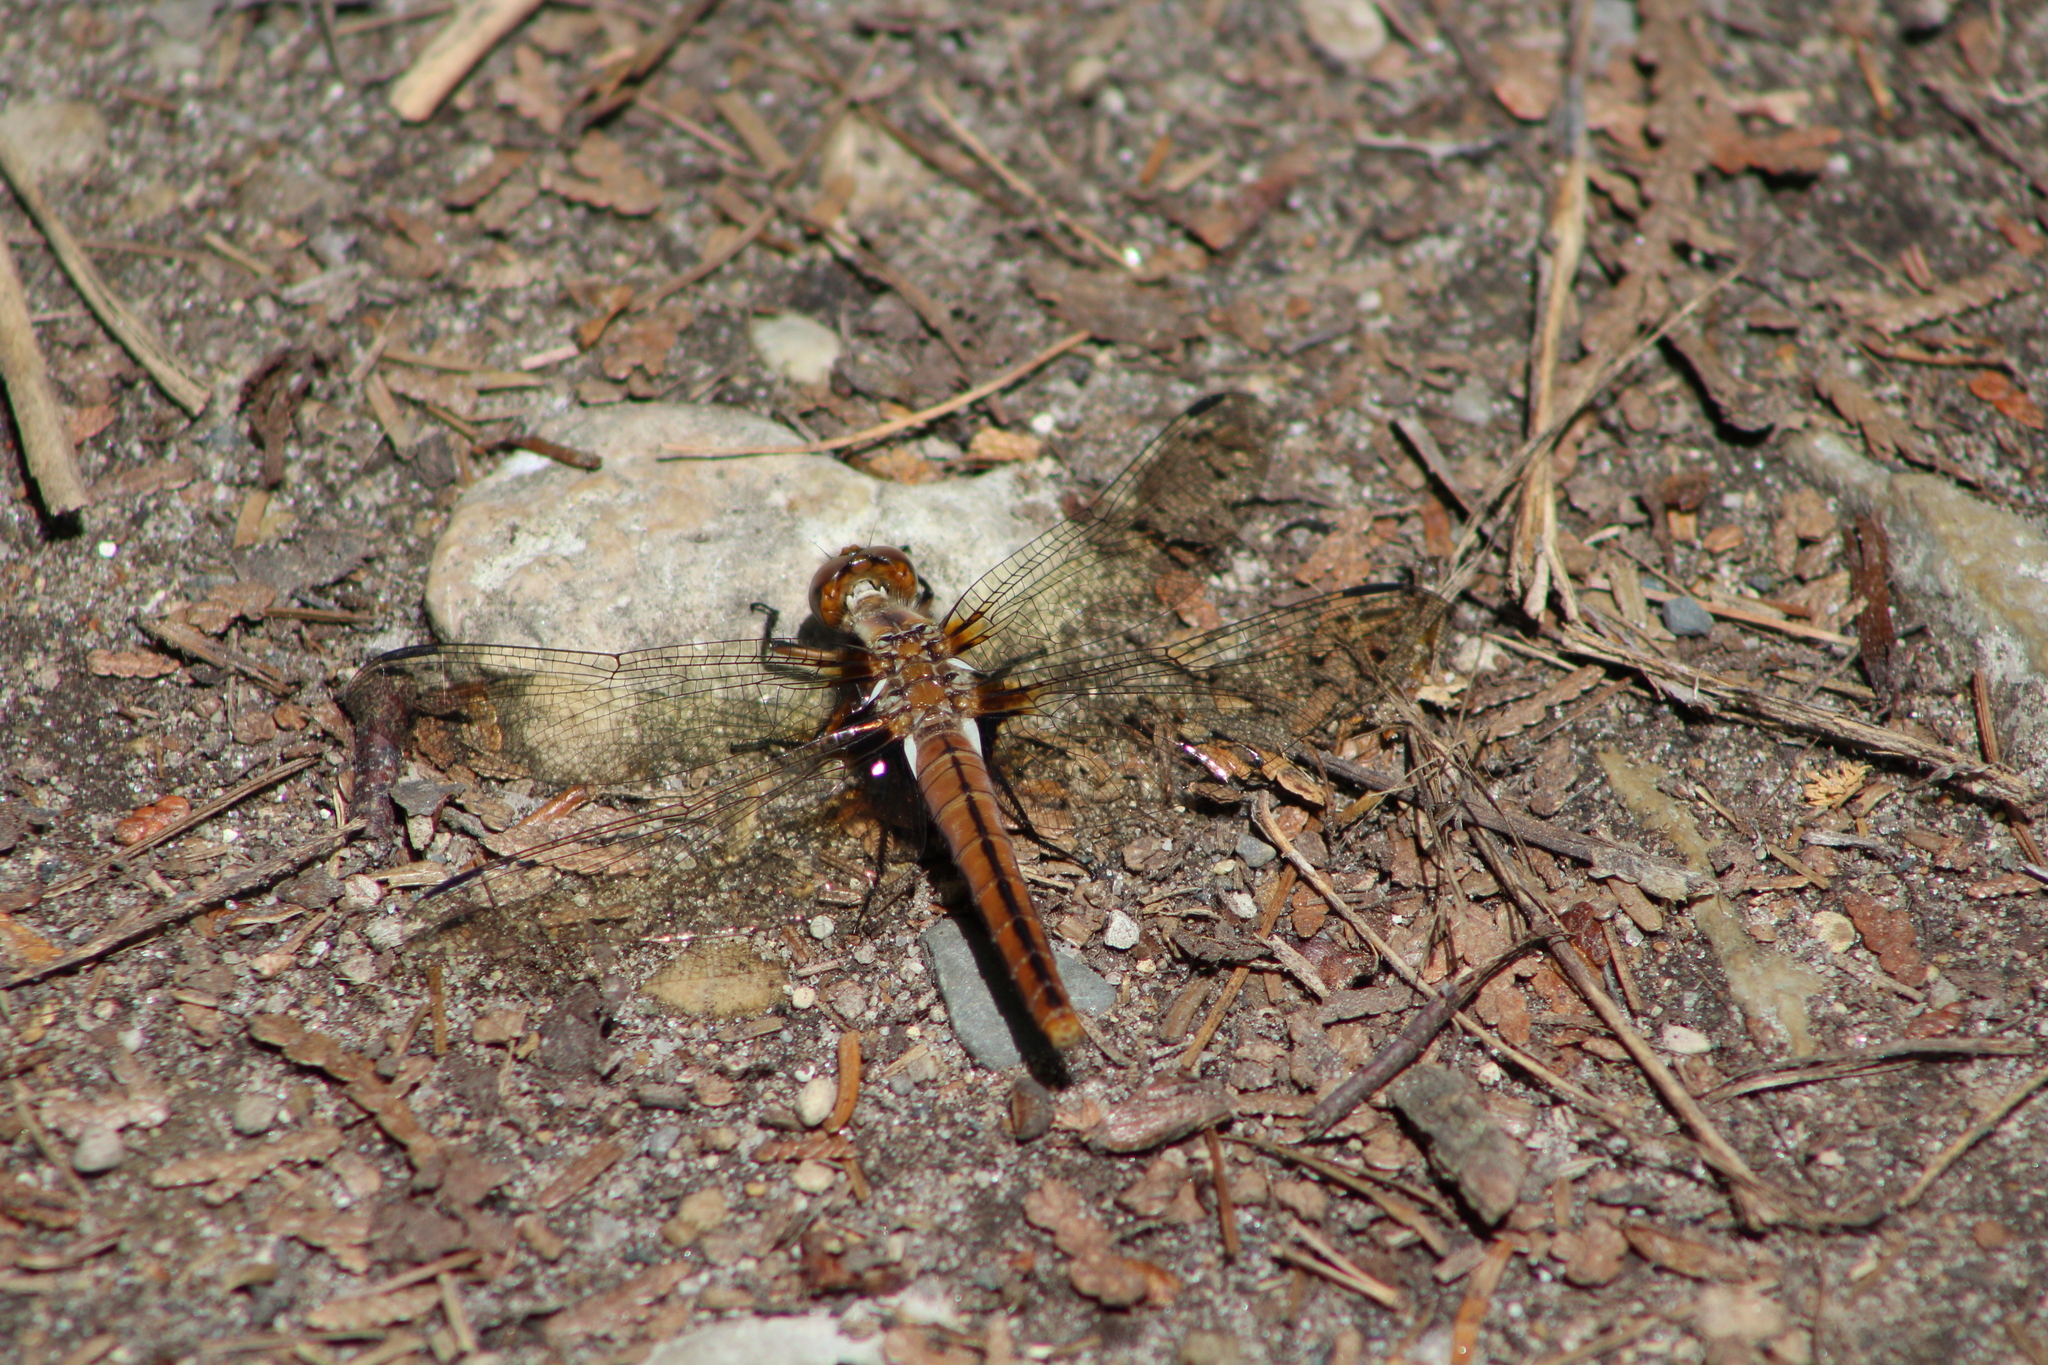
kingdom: Animalia
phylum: Arthropoda
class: Insecta
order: Odonata
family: Libellulidae
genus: Ladona
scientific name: Ladona julia
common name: Chalk-fronted corporal
